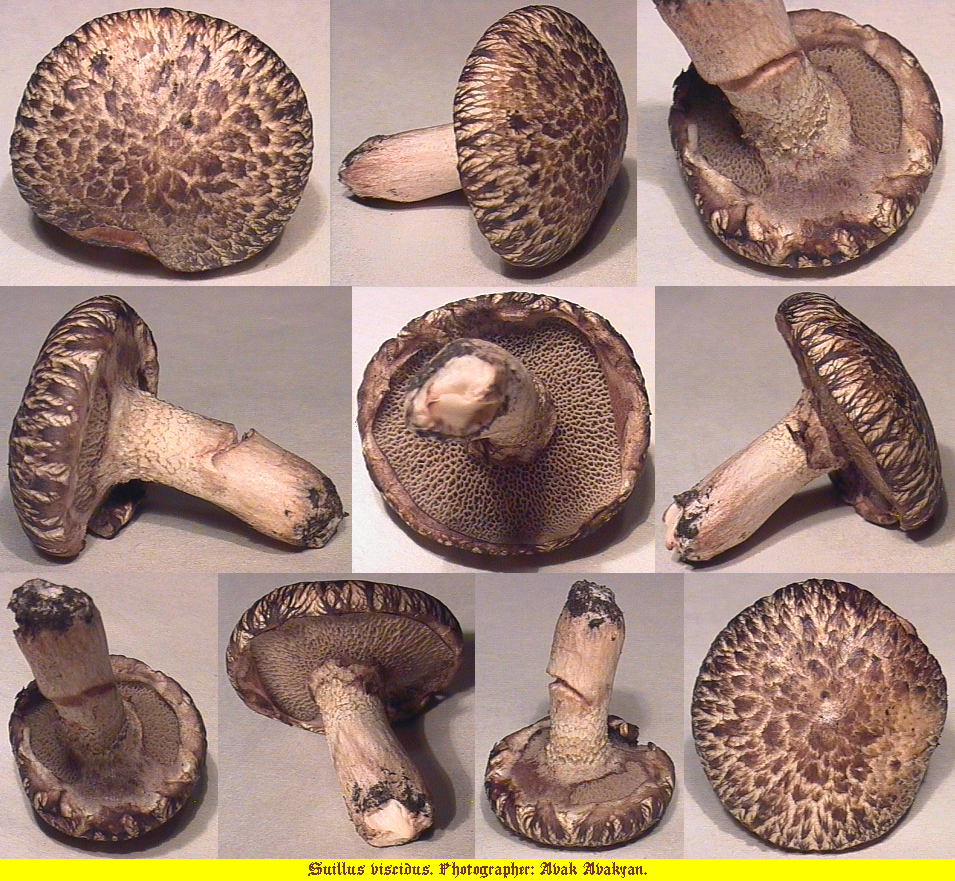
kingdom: Fungi
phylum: Basidiomycota
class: Agaricomycetes
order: Boletales
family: Suillaceae
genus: Suillus
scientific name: Suillus viscidus
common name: Sticky bolete
